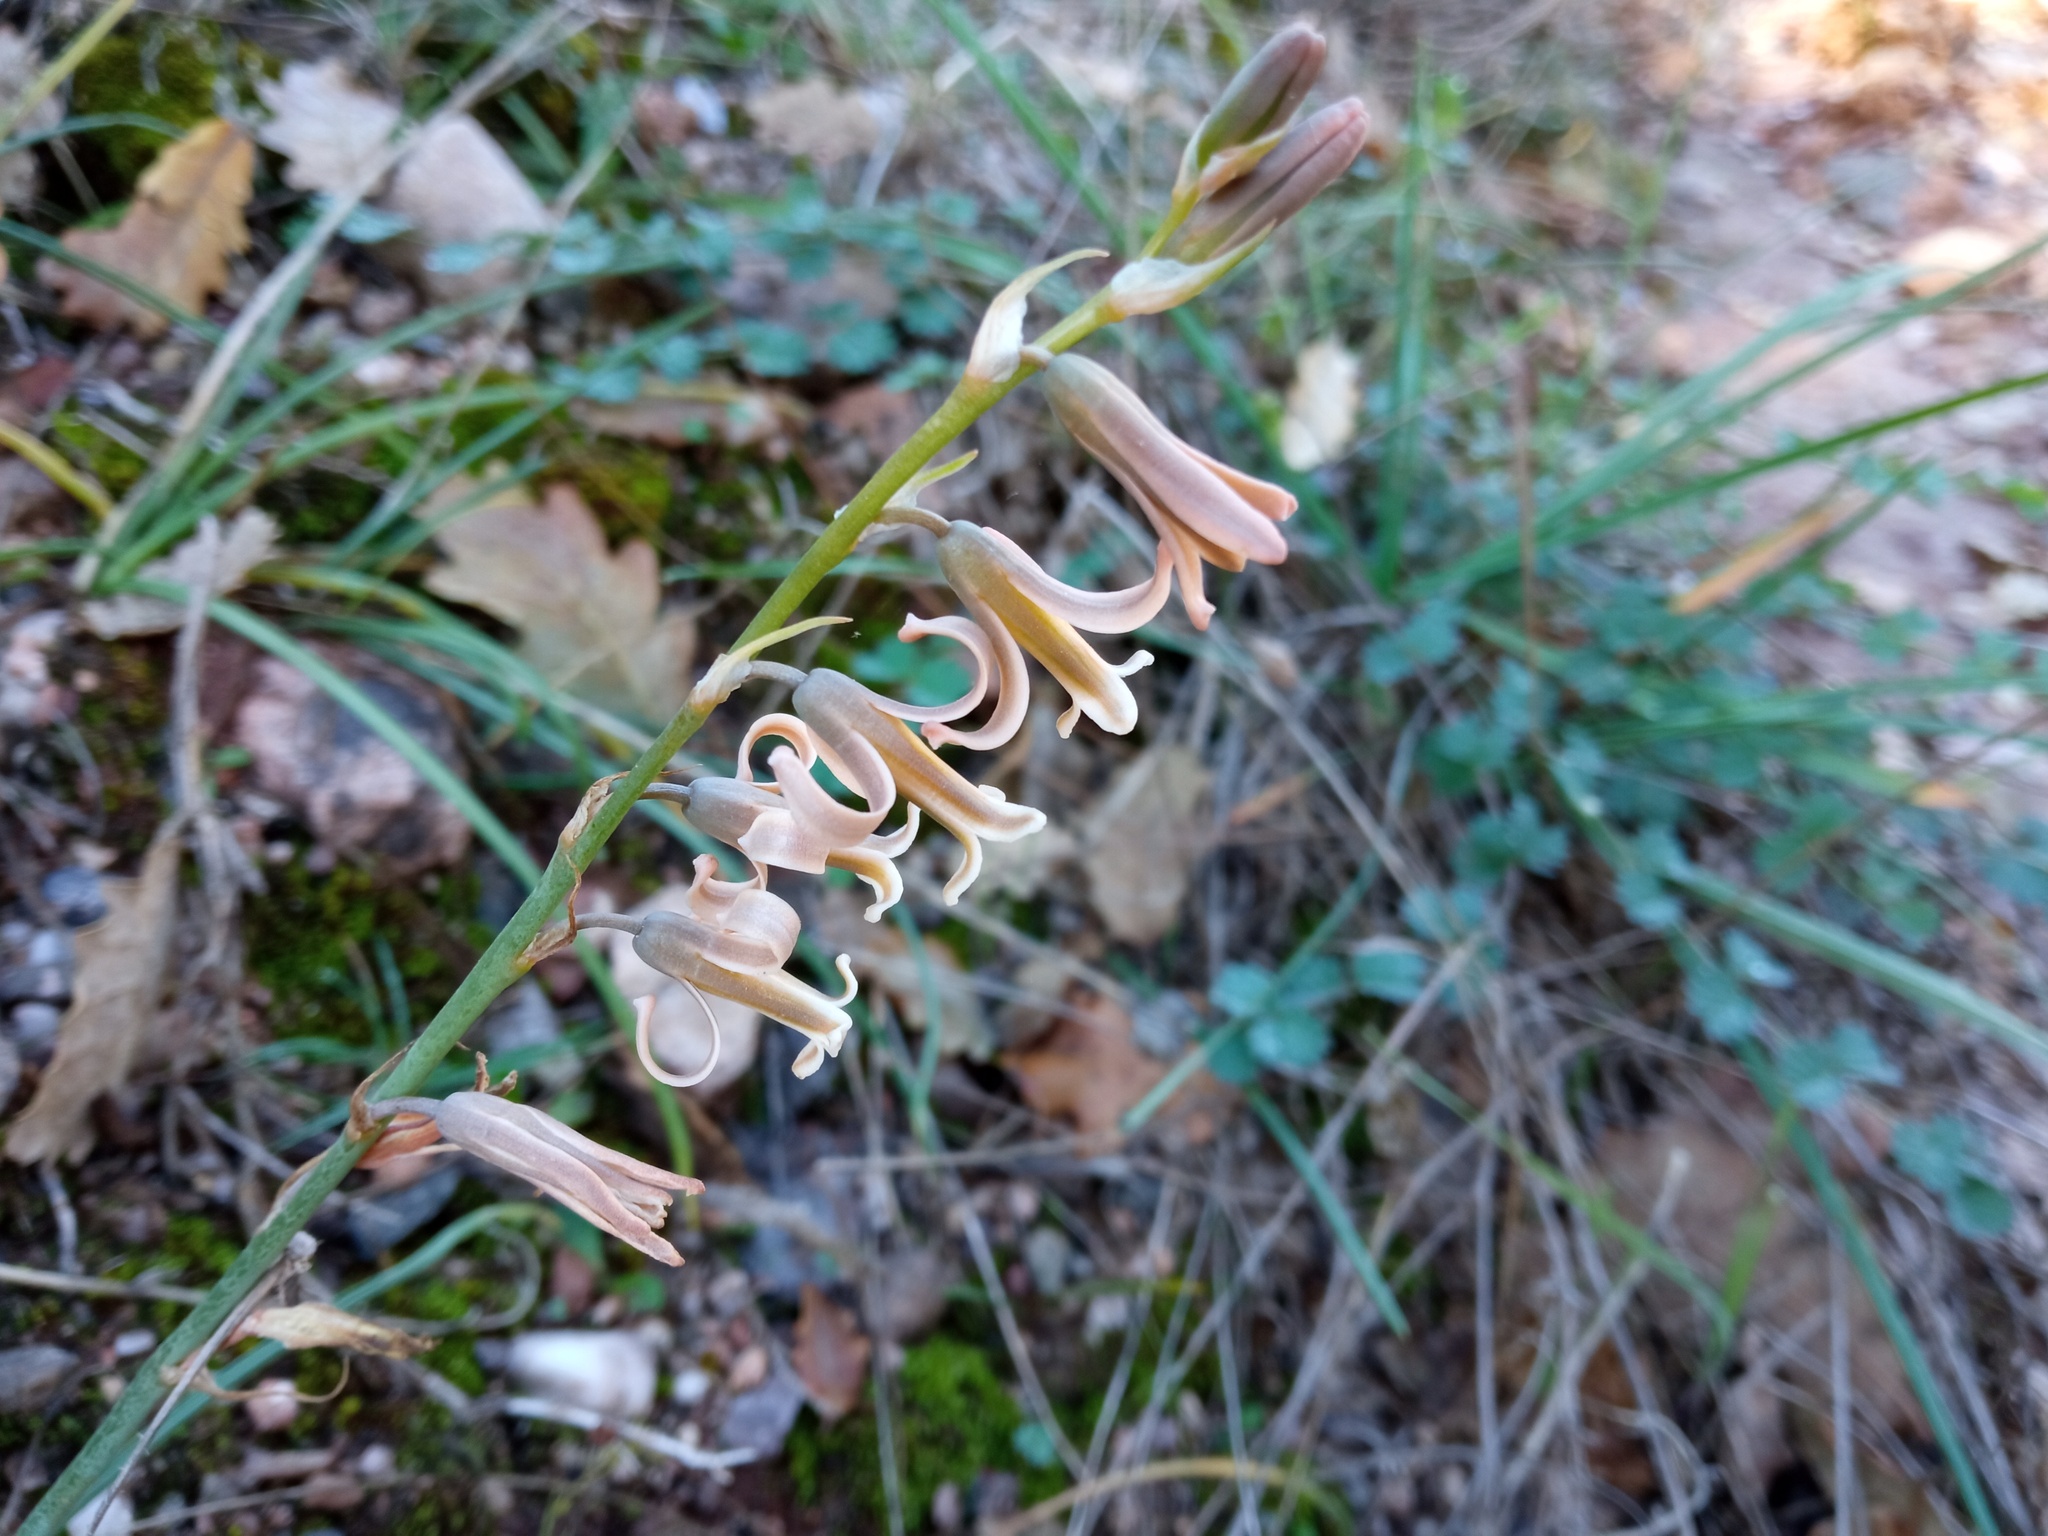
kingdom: Plantae
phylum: Tracheophyta
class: Liliopsida
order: Asparagales
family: Asparagaceae
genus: Dipcadi
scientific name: Dipcadi serotinum
